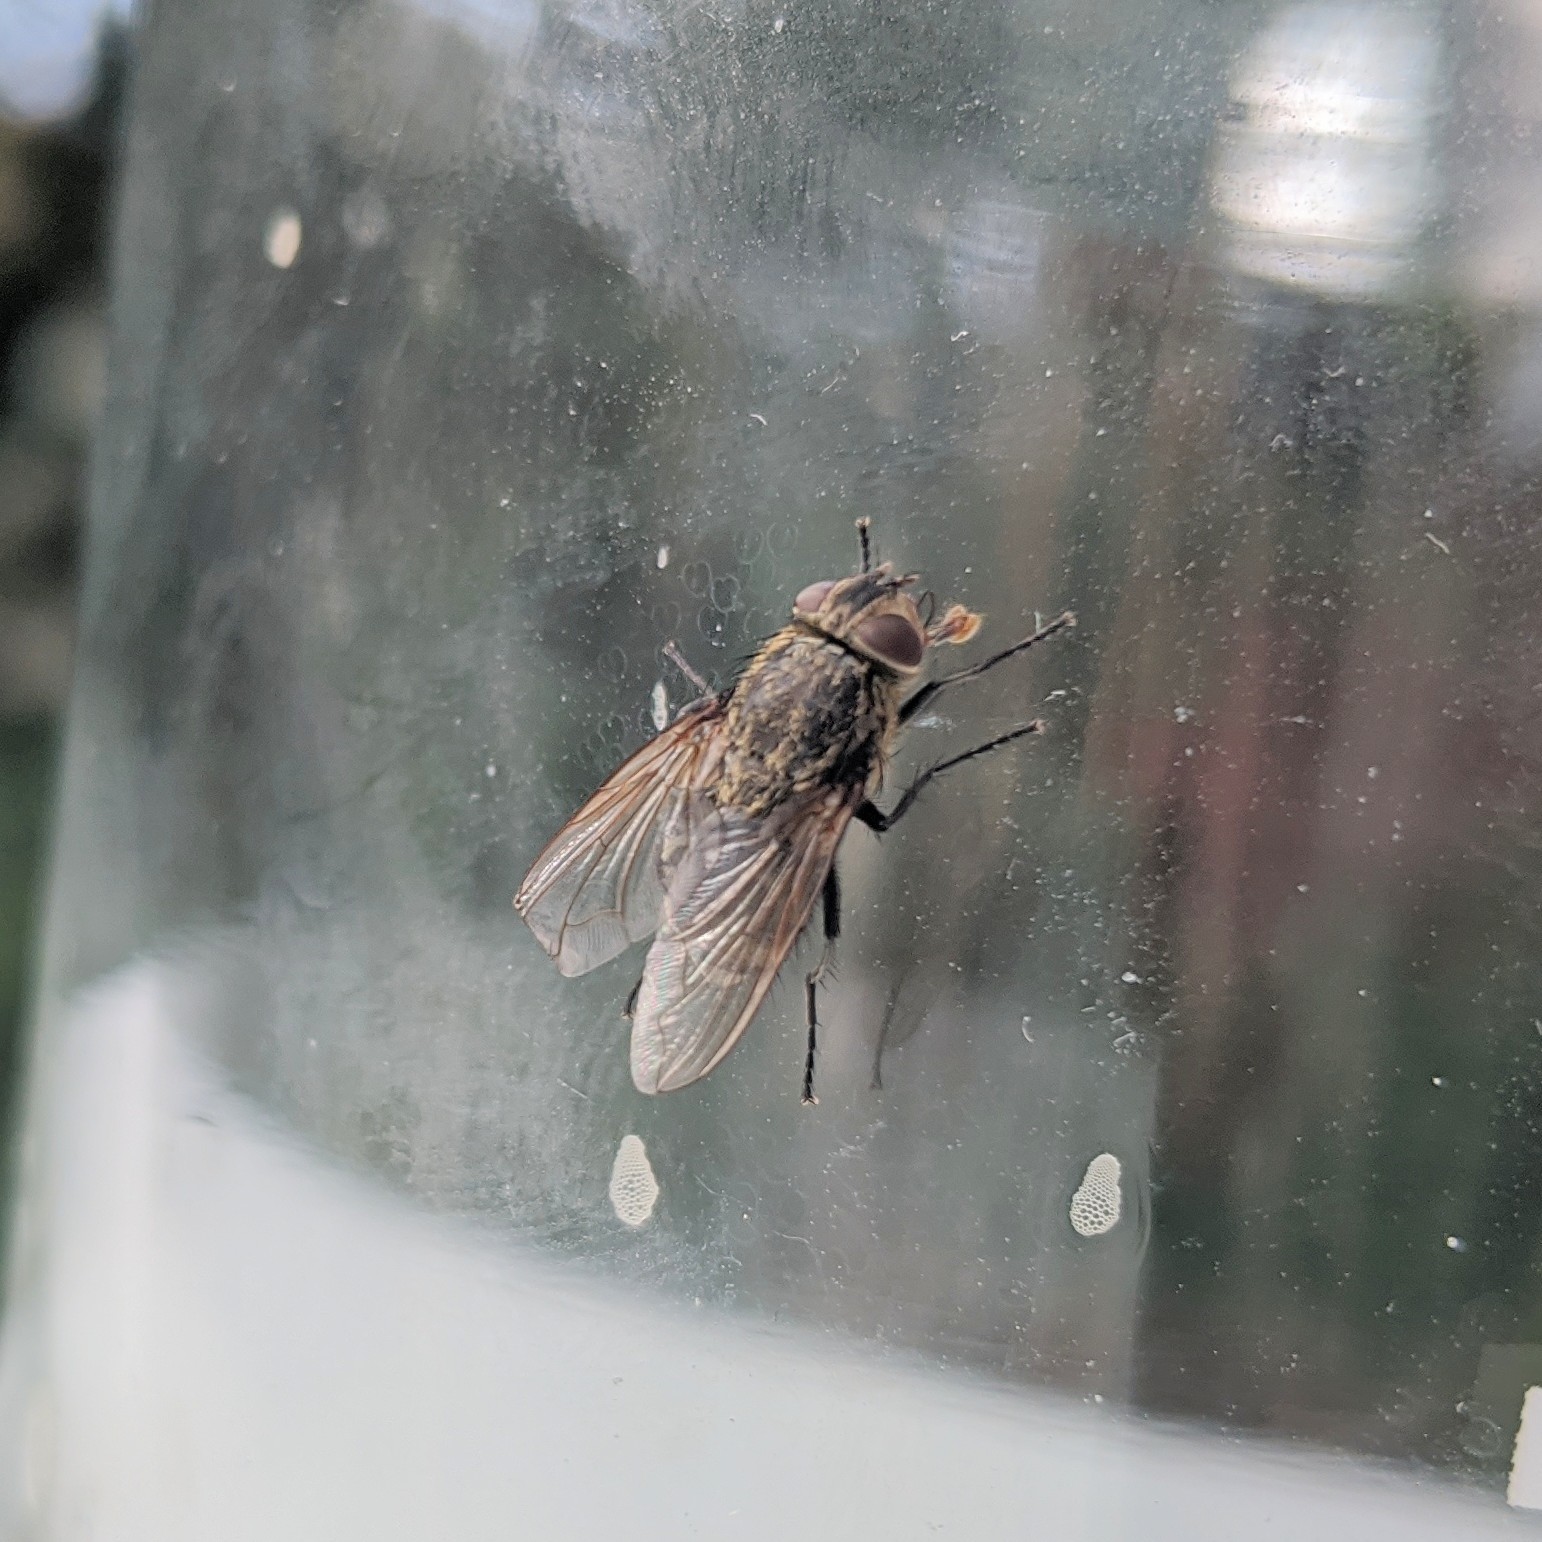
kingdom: Animalia
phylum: Arthropoda
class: Insecta
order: Diptera
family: Polleniidae
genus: Pollenia
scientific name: Pollenia
